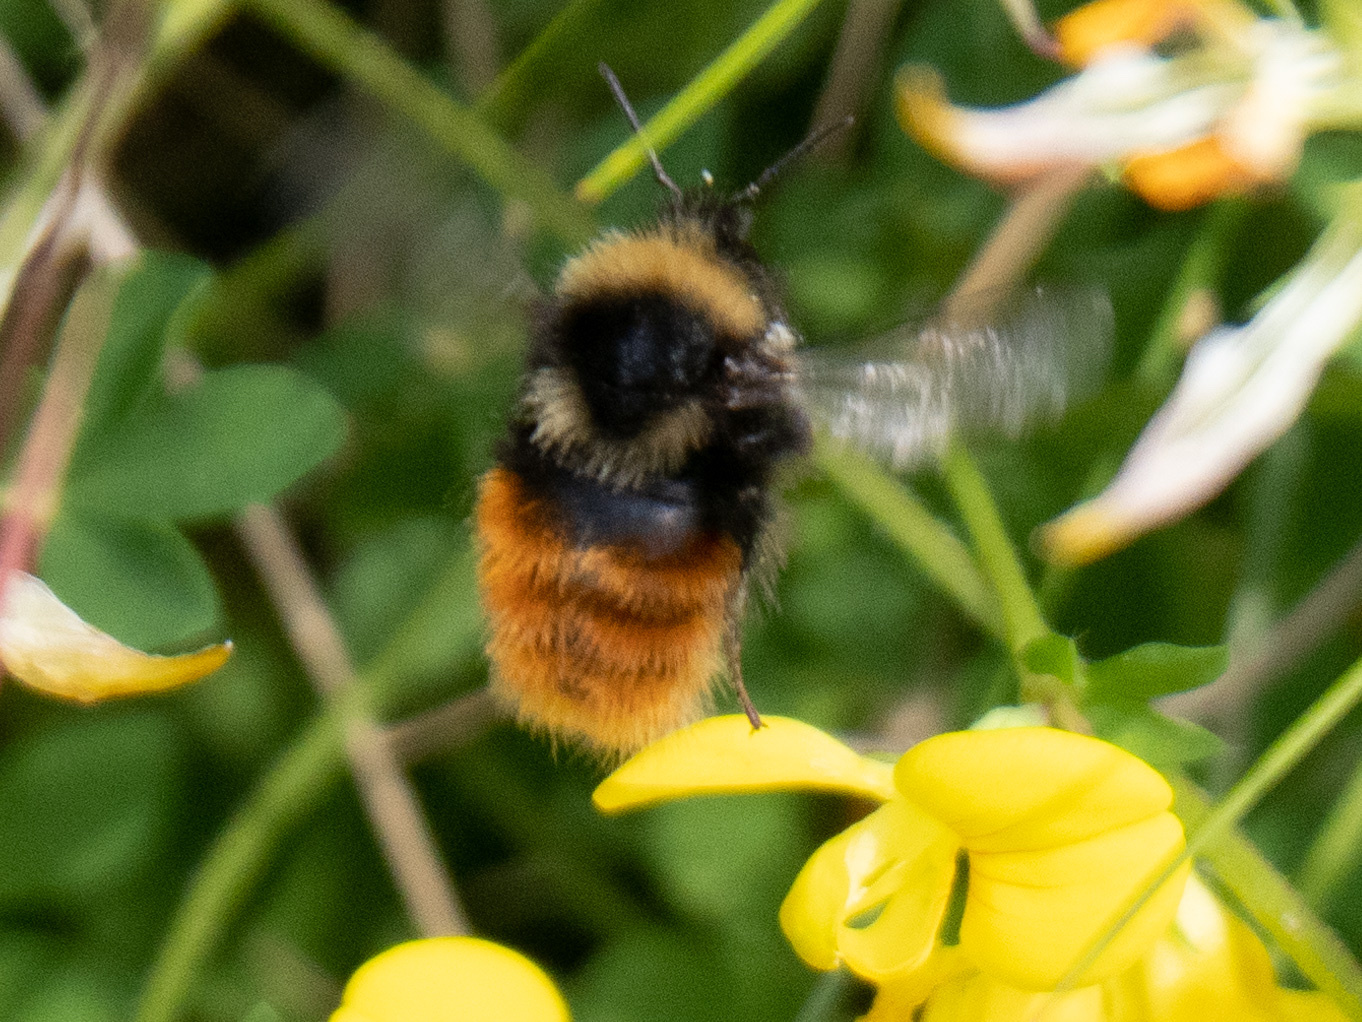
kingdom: Animalia
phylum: Arthropoda
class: Insecta
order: Hymenoptera
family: Apidae
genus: Bombus
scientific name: Bombus monticola
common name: Bilberry humble-bee
